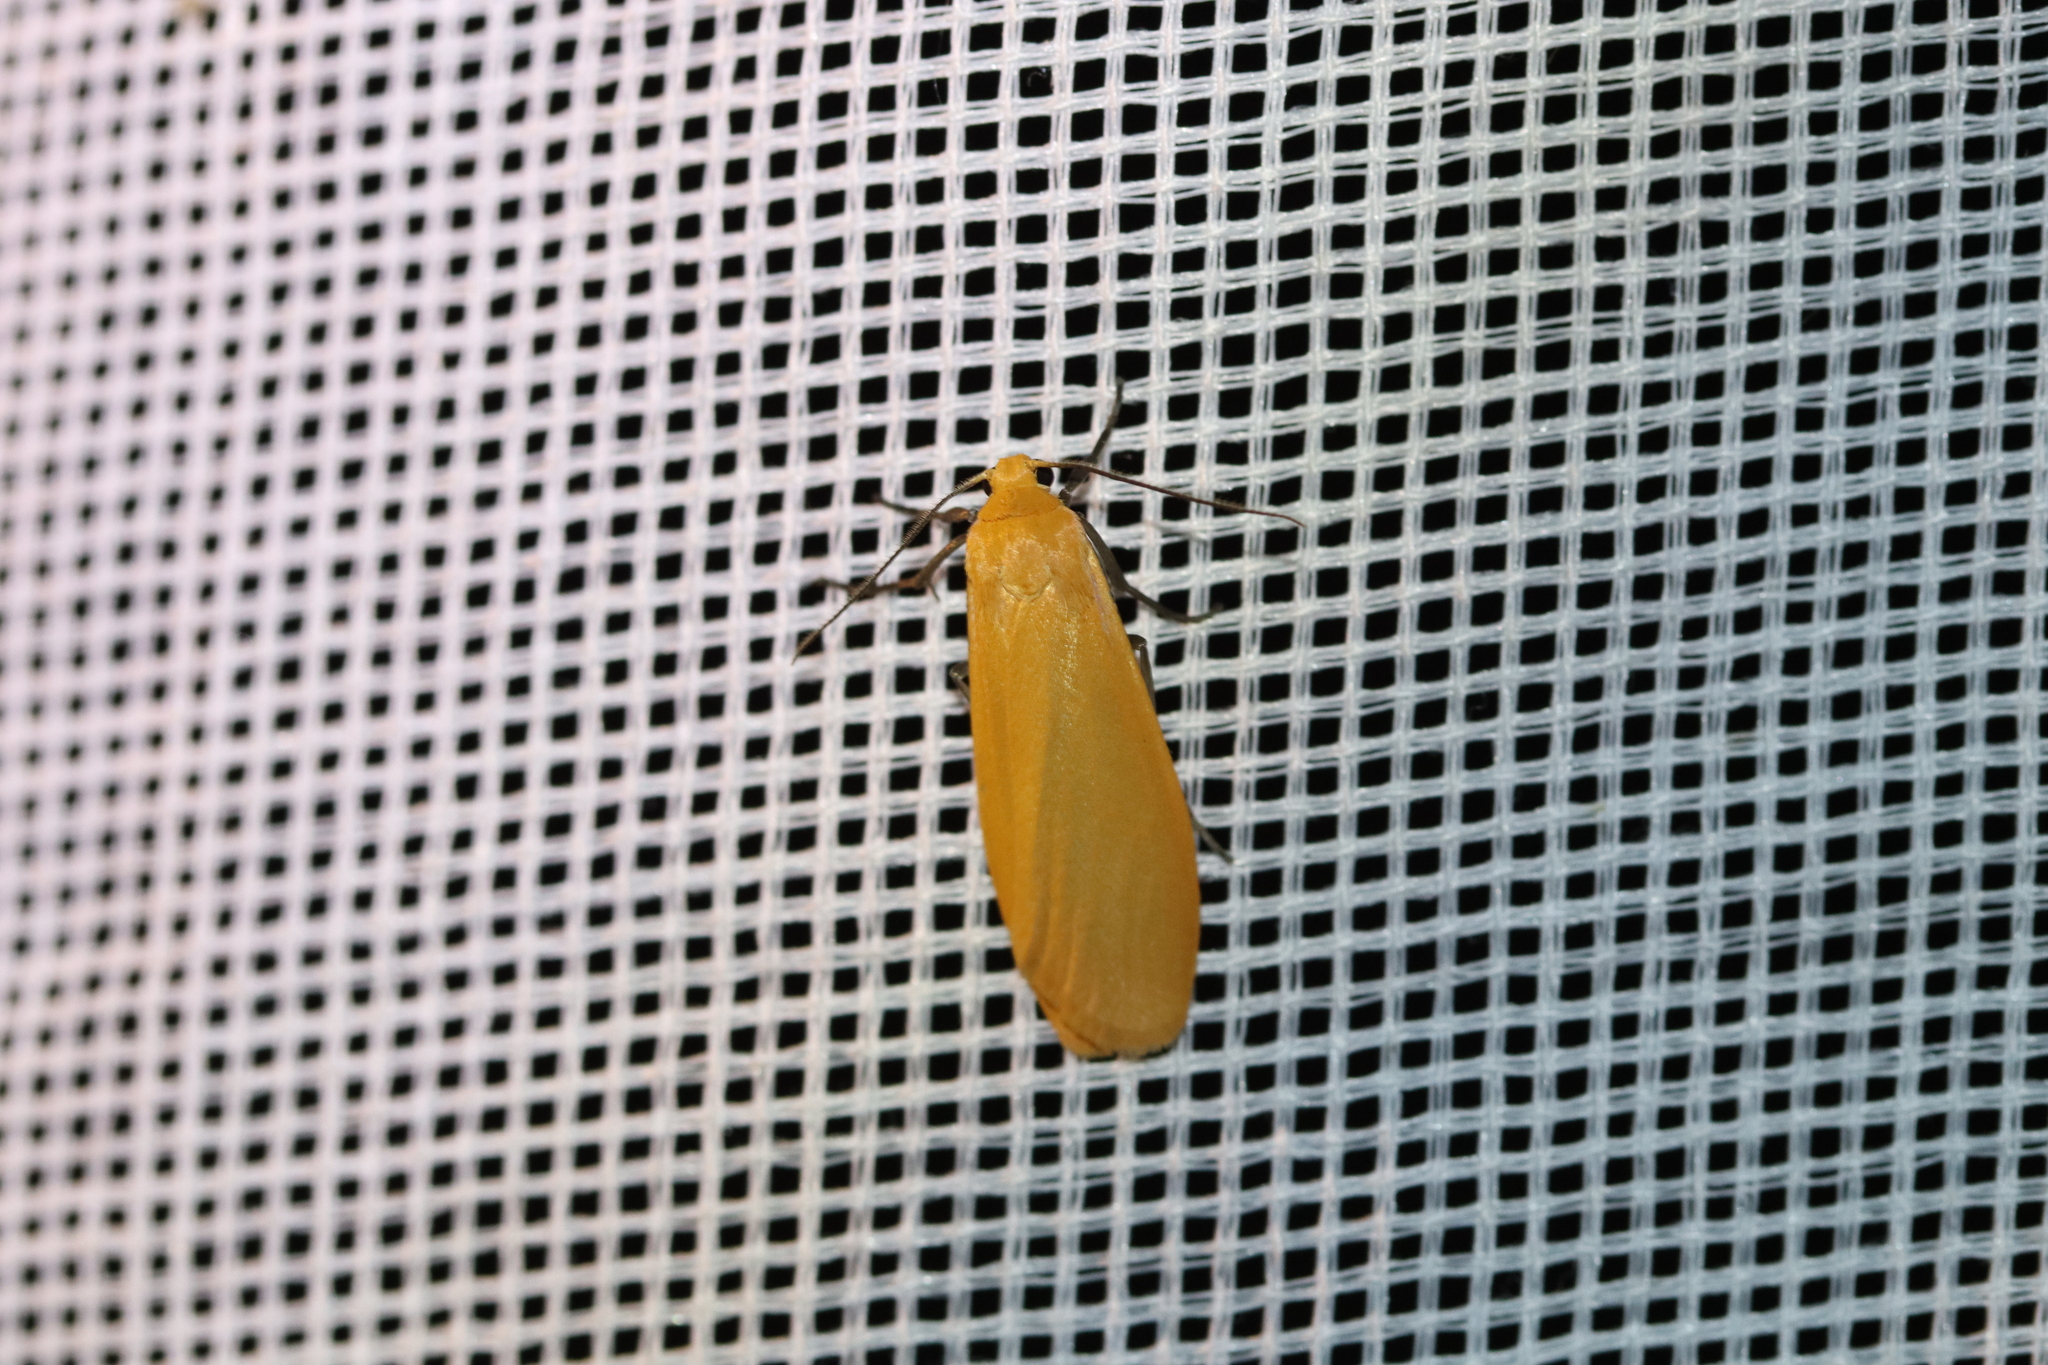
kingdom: Animalia
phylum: Arthropoda
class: Insecta
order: Lepidoptera
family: Erebidae
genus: Wittia
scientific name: Wittia sororcula
